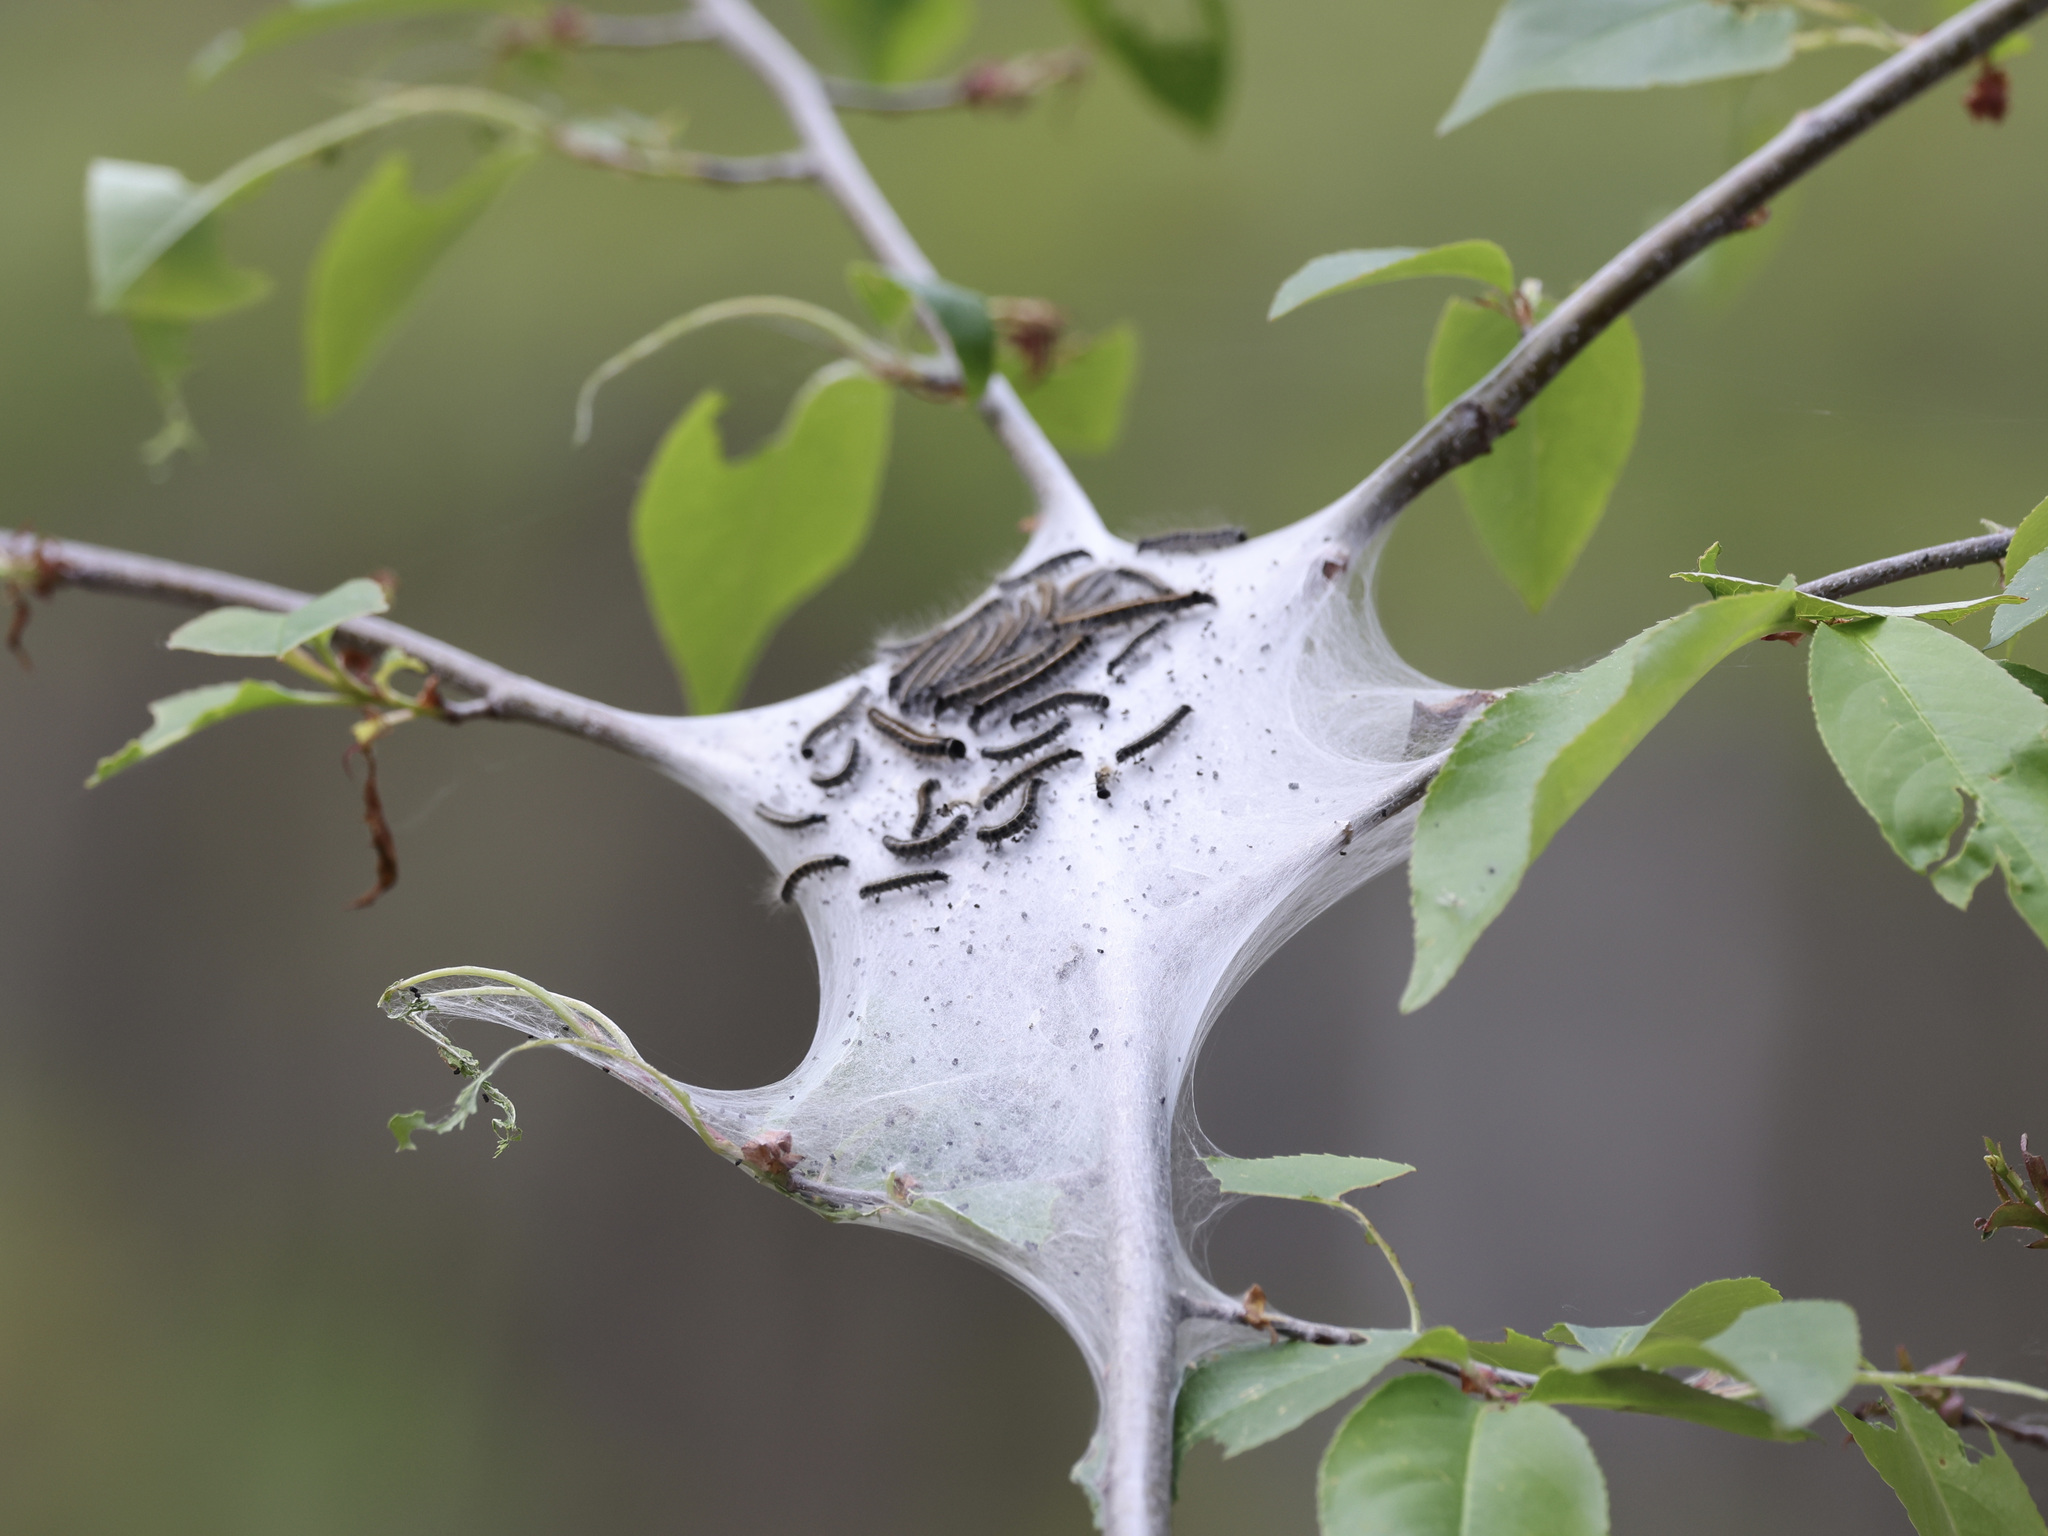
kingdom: Animalia
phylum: Arthropoda
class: Insecta
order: Lepidoptera
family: Lasiocampidae
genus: Malacosoma
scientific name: Malacosoma americana
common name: Eastern tent caterpillar moth
